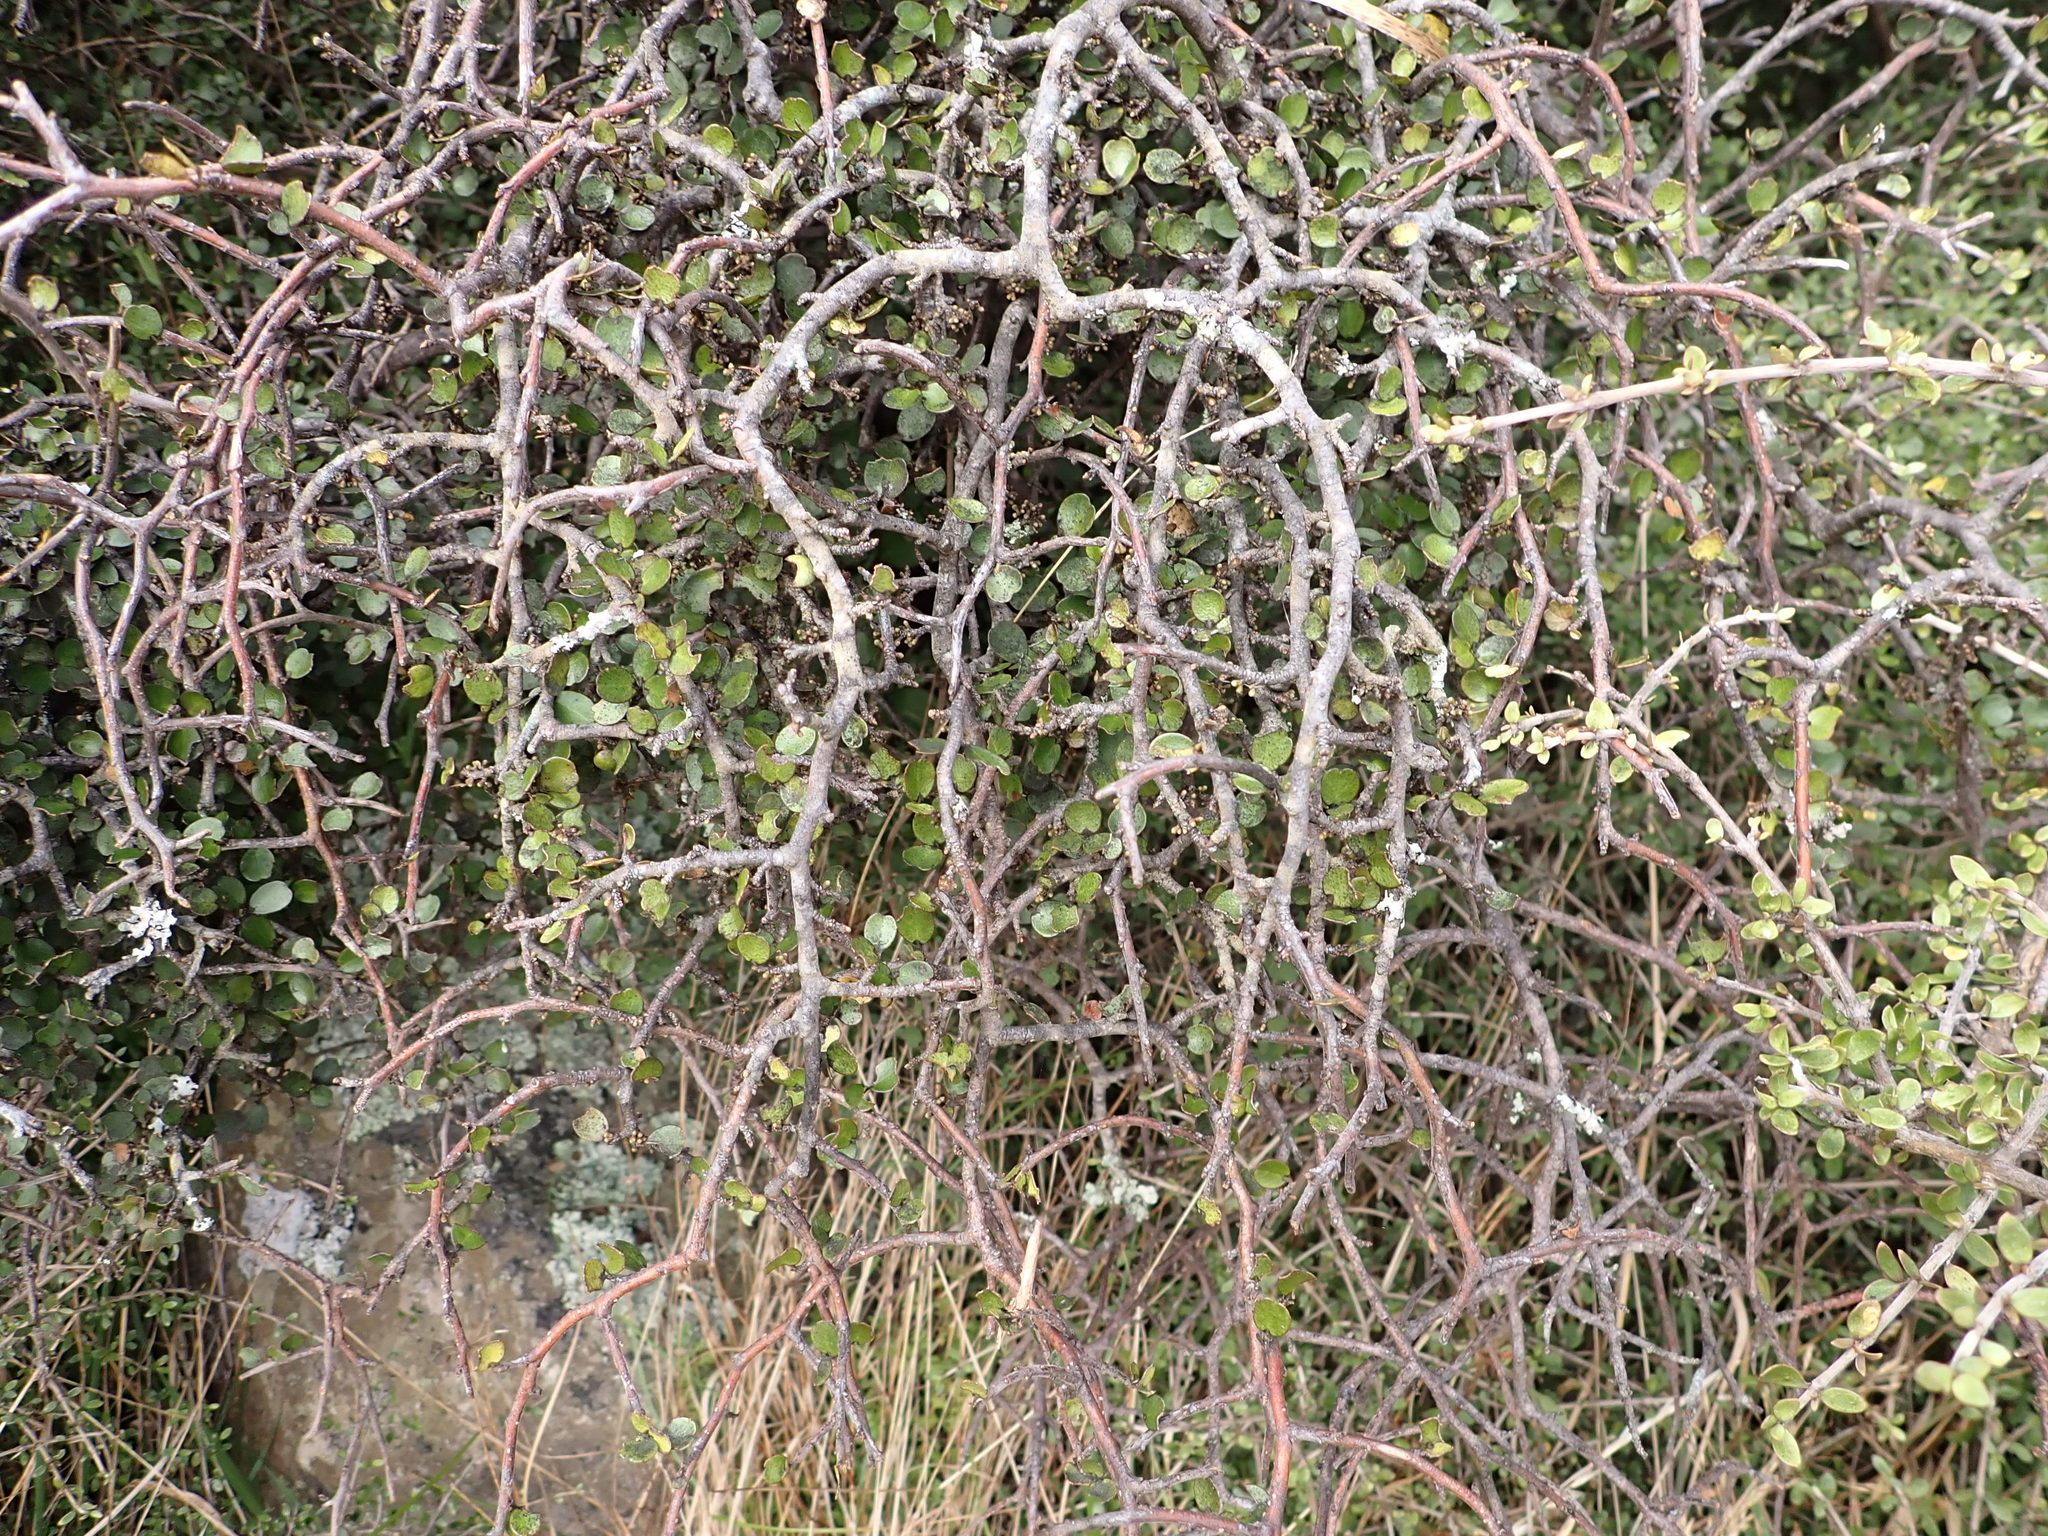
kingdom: Plantae
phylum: Tracheophyta
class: Magnoliopsida
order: Ericales
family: Primulaceae
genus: Myrsine
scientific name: Myrsine divaricata
